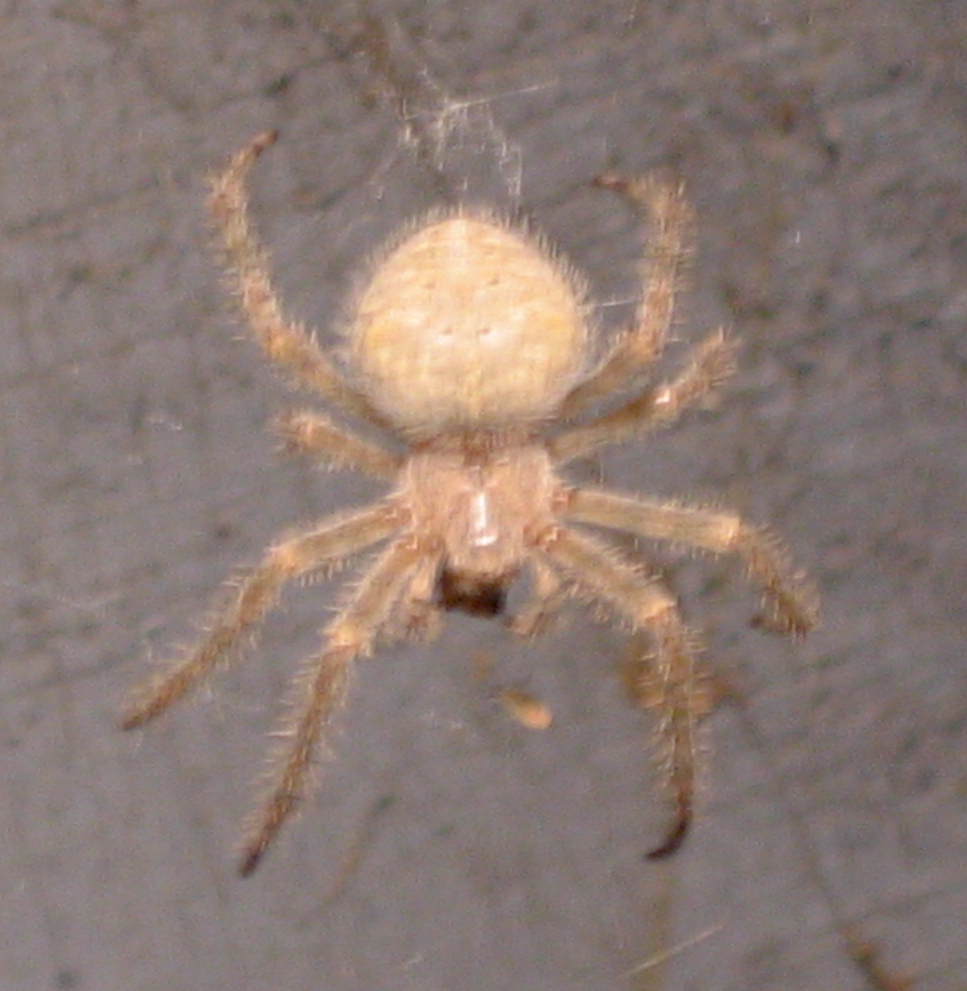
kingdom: Animalia
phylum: Arthropoda
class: Arachnida
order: Araneae
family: Araneidae
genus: Araneus
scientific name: Araneus cavaticus
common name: Barn orbweaver
